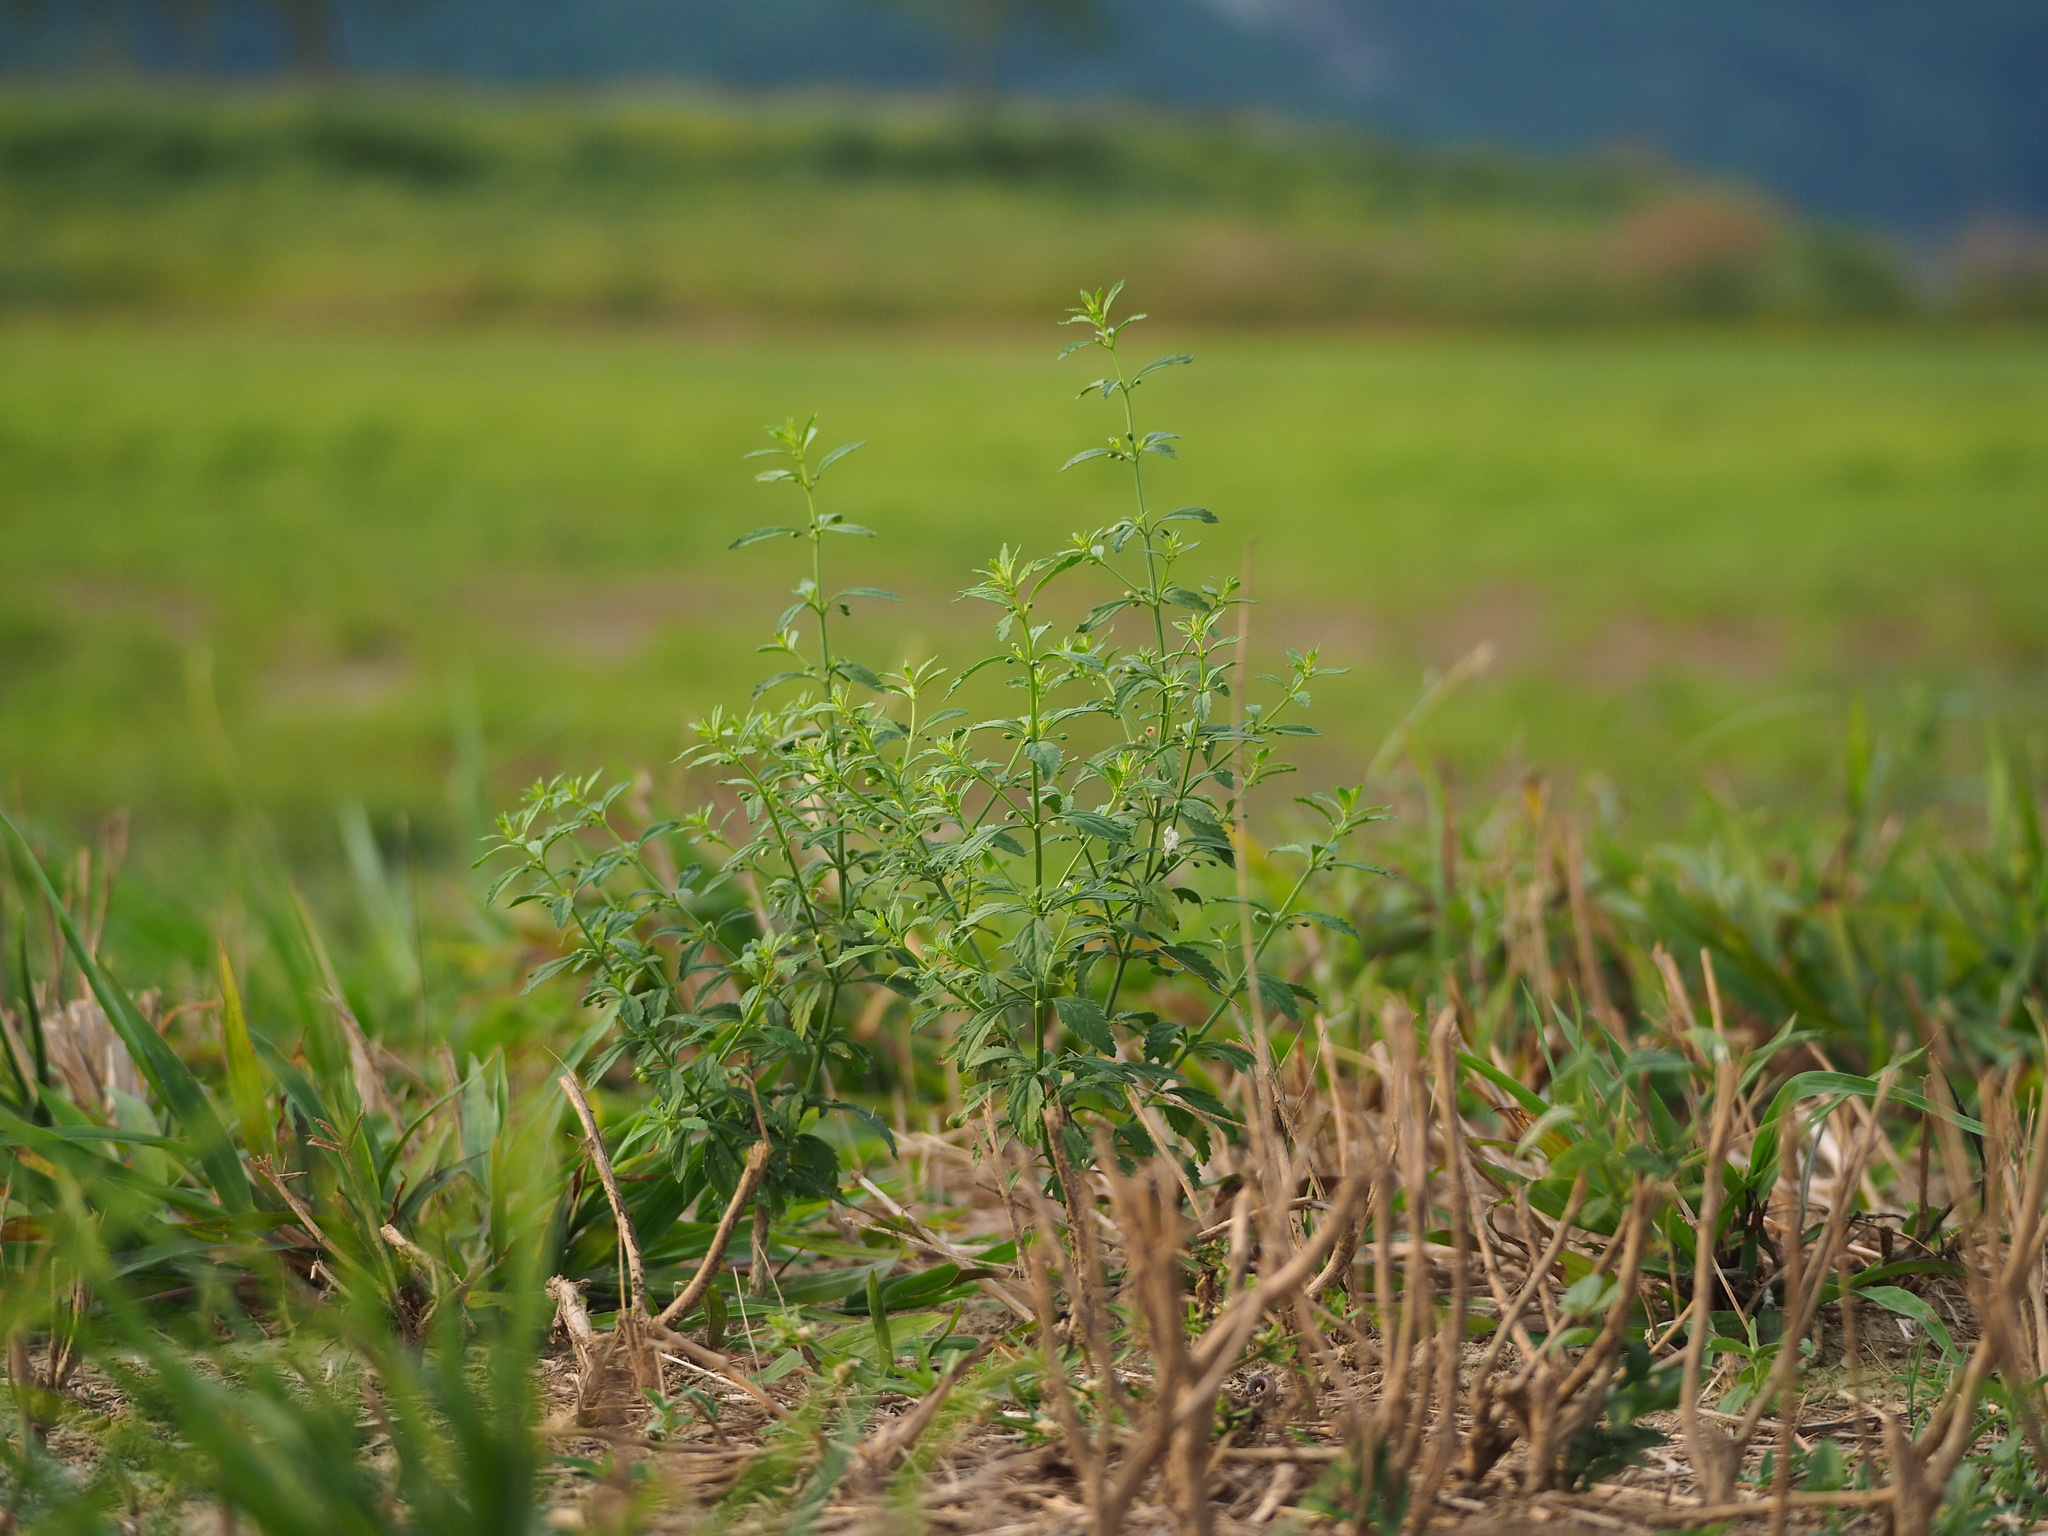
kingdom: Plantae
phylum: Tracheophyta
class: Magnoliopsida
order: Lamiales
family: Plantaginaceae
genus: Scoparia
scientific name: Scoparia dulcis
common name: Scoparia-weed
